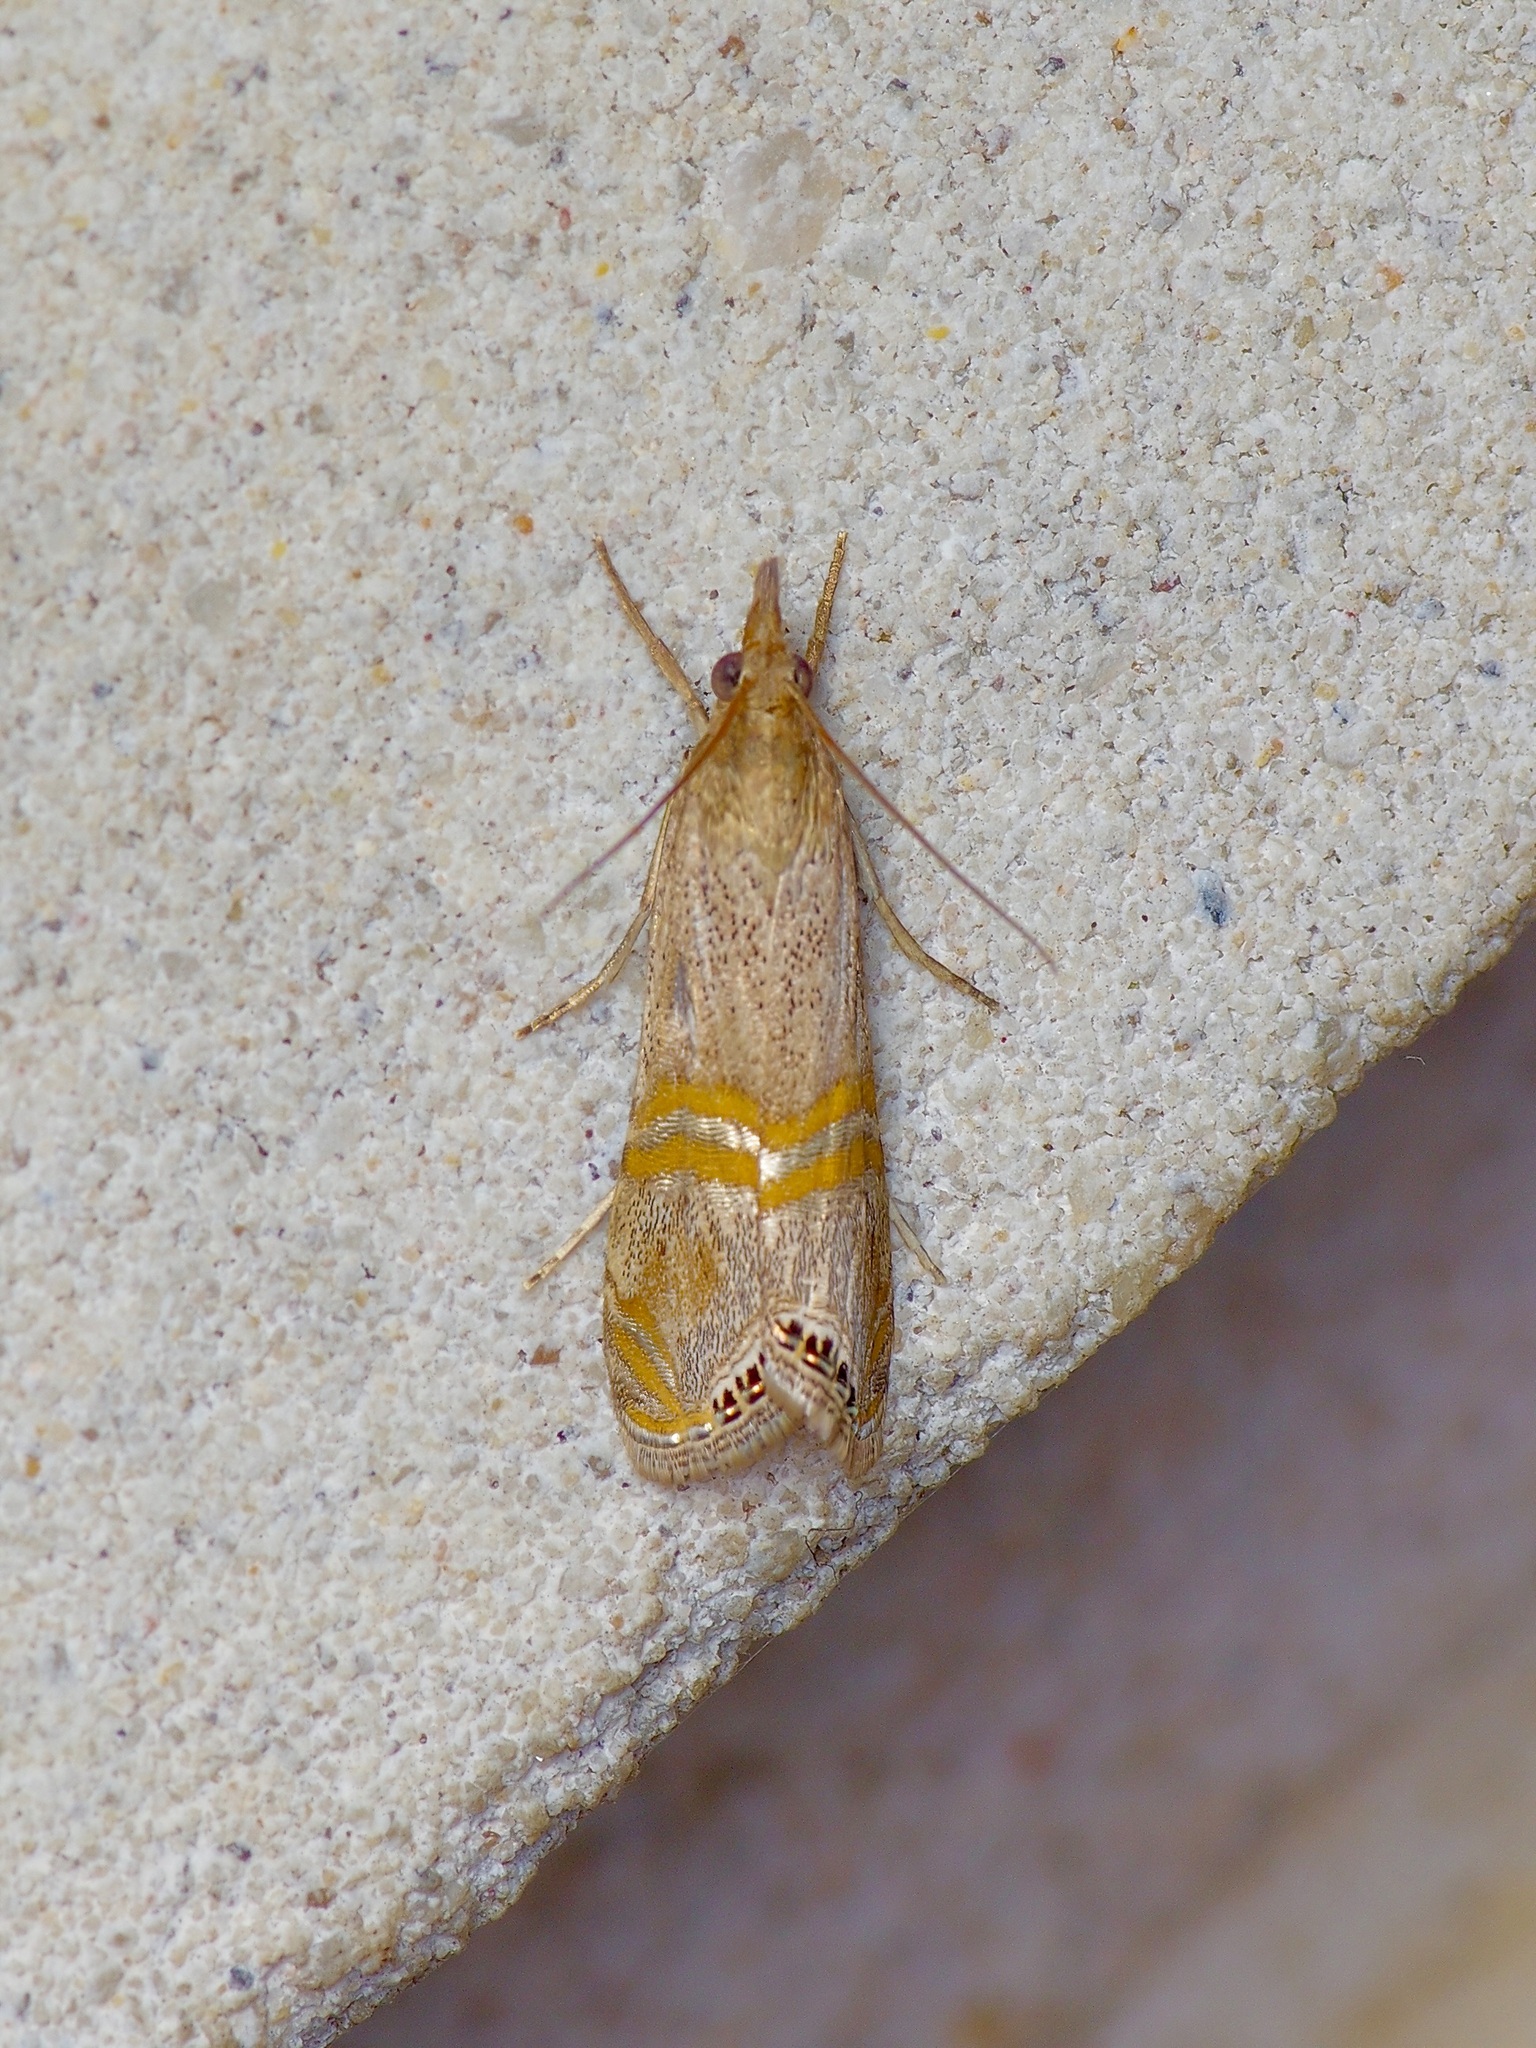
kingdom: Animalia
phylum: Arthropoda
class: Insecta
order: Lepidoptera
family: Crambidae
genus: Euchromius
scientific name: Euchromius ocellea
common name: Necklace veneer moth
